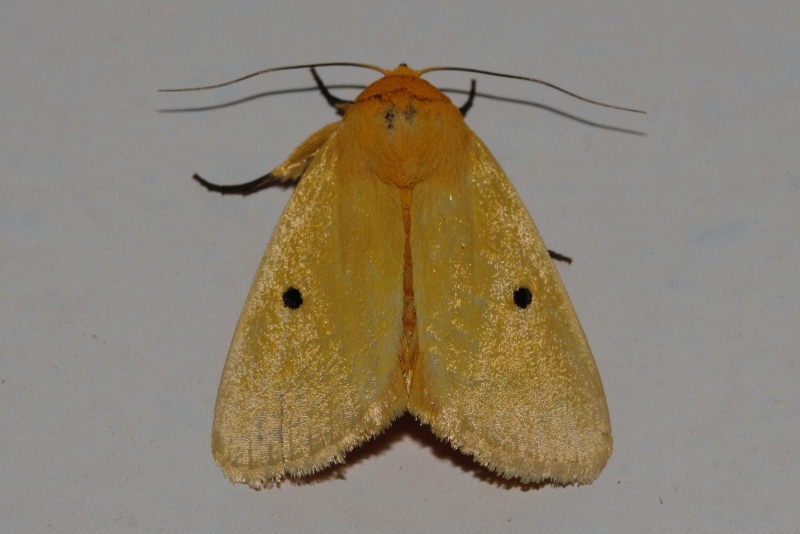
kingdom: Animalia
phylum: Arthropoda
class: Insecta
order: Lepidoptera
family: Nolidae
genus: Leocyma
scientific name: Leocyma appollinis
